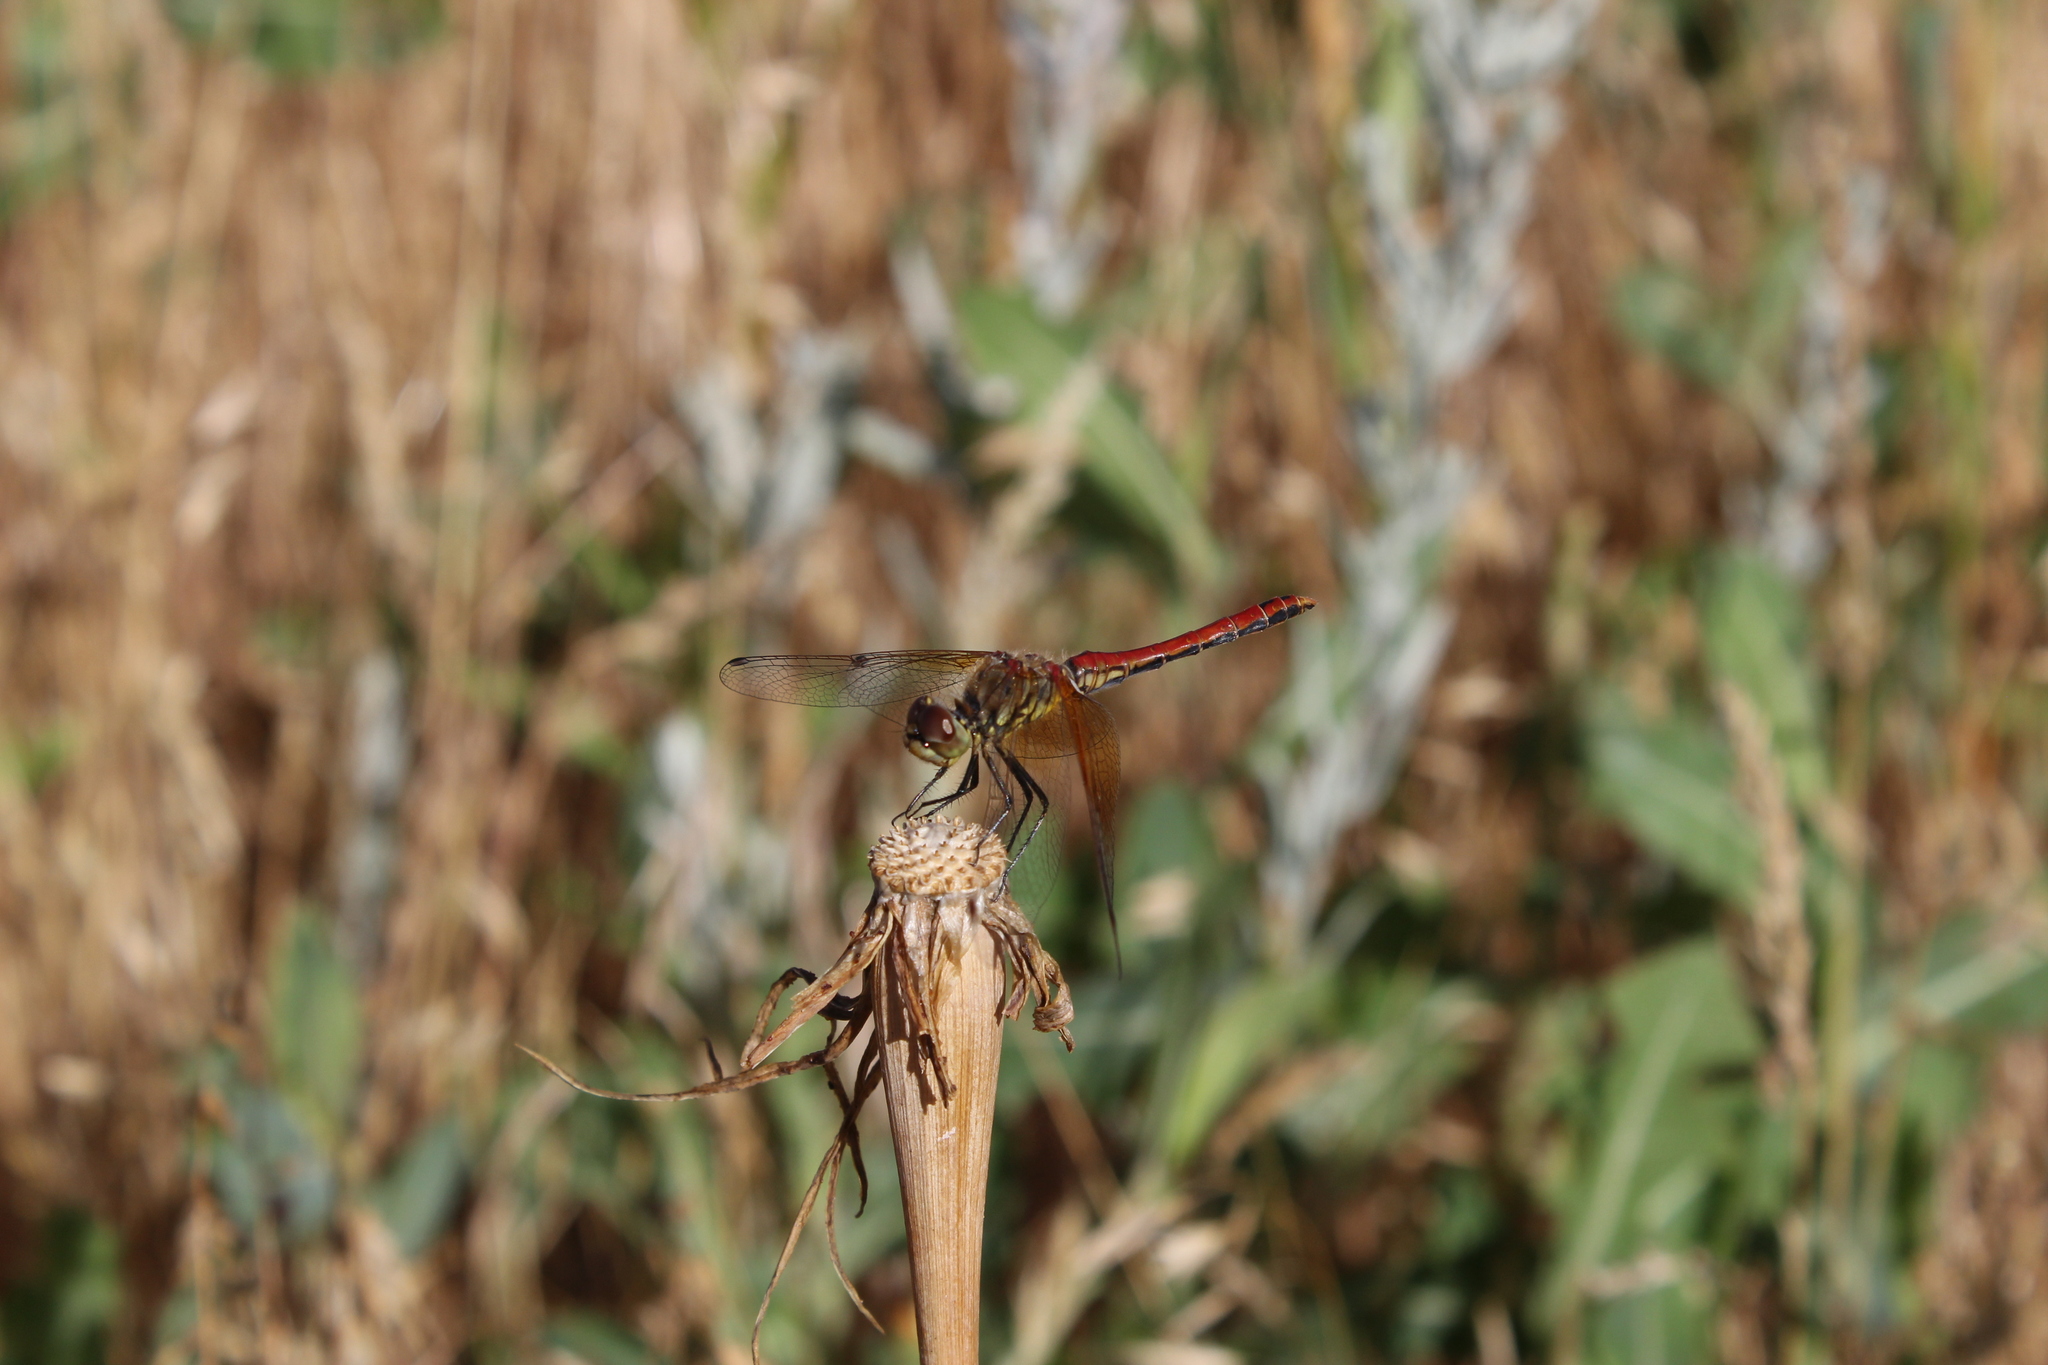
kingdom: Animalia
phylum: Arthropoda
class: Insecta
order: Odonata
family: Libellulidae
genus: Sympetrum
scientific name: Sympetrum semicinctum
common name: Band-winged meadowhawk
